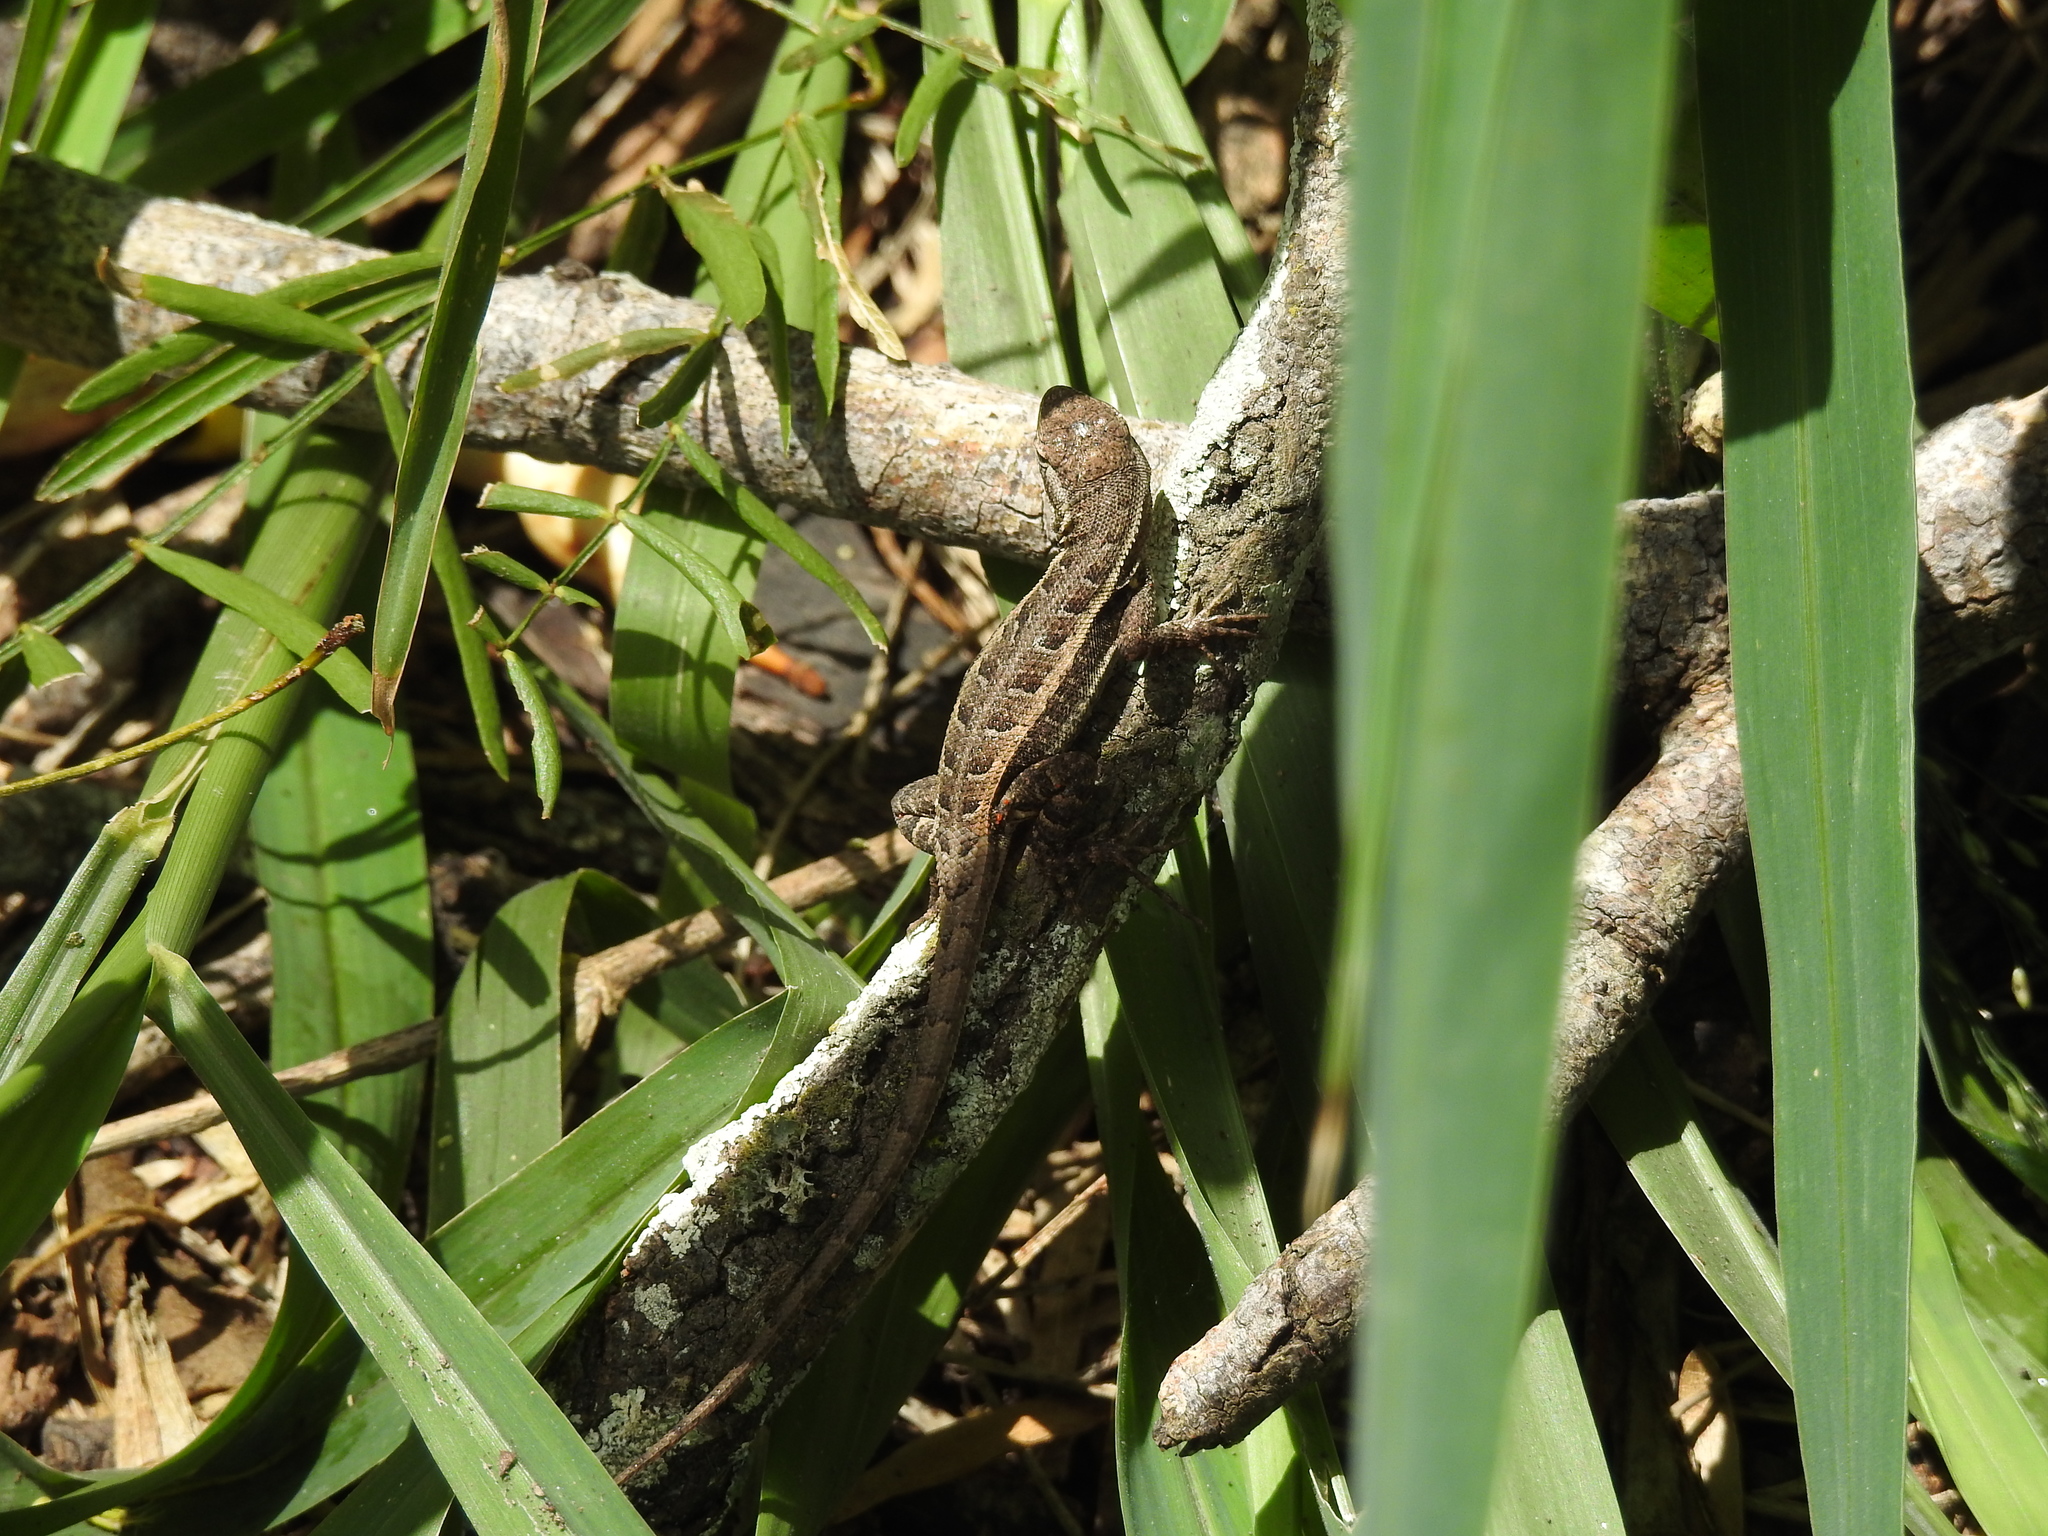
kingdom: Animalia
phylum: Chordata
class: Squamata
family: Phrynosomatidae
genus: Sceloporus
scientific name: Sceloporus variabilis
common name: Rosebelly lizard
